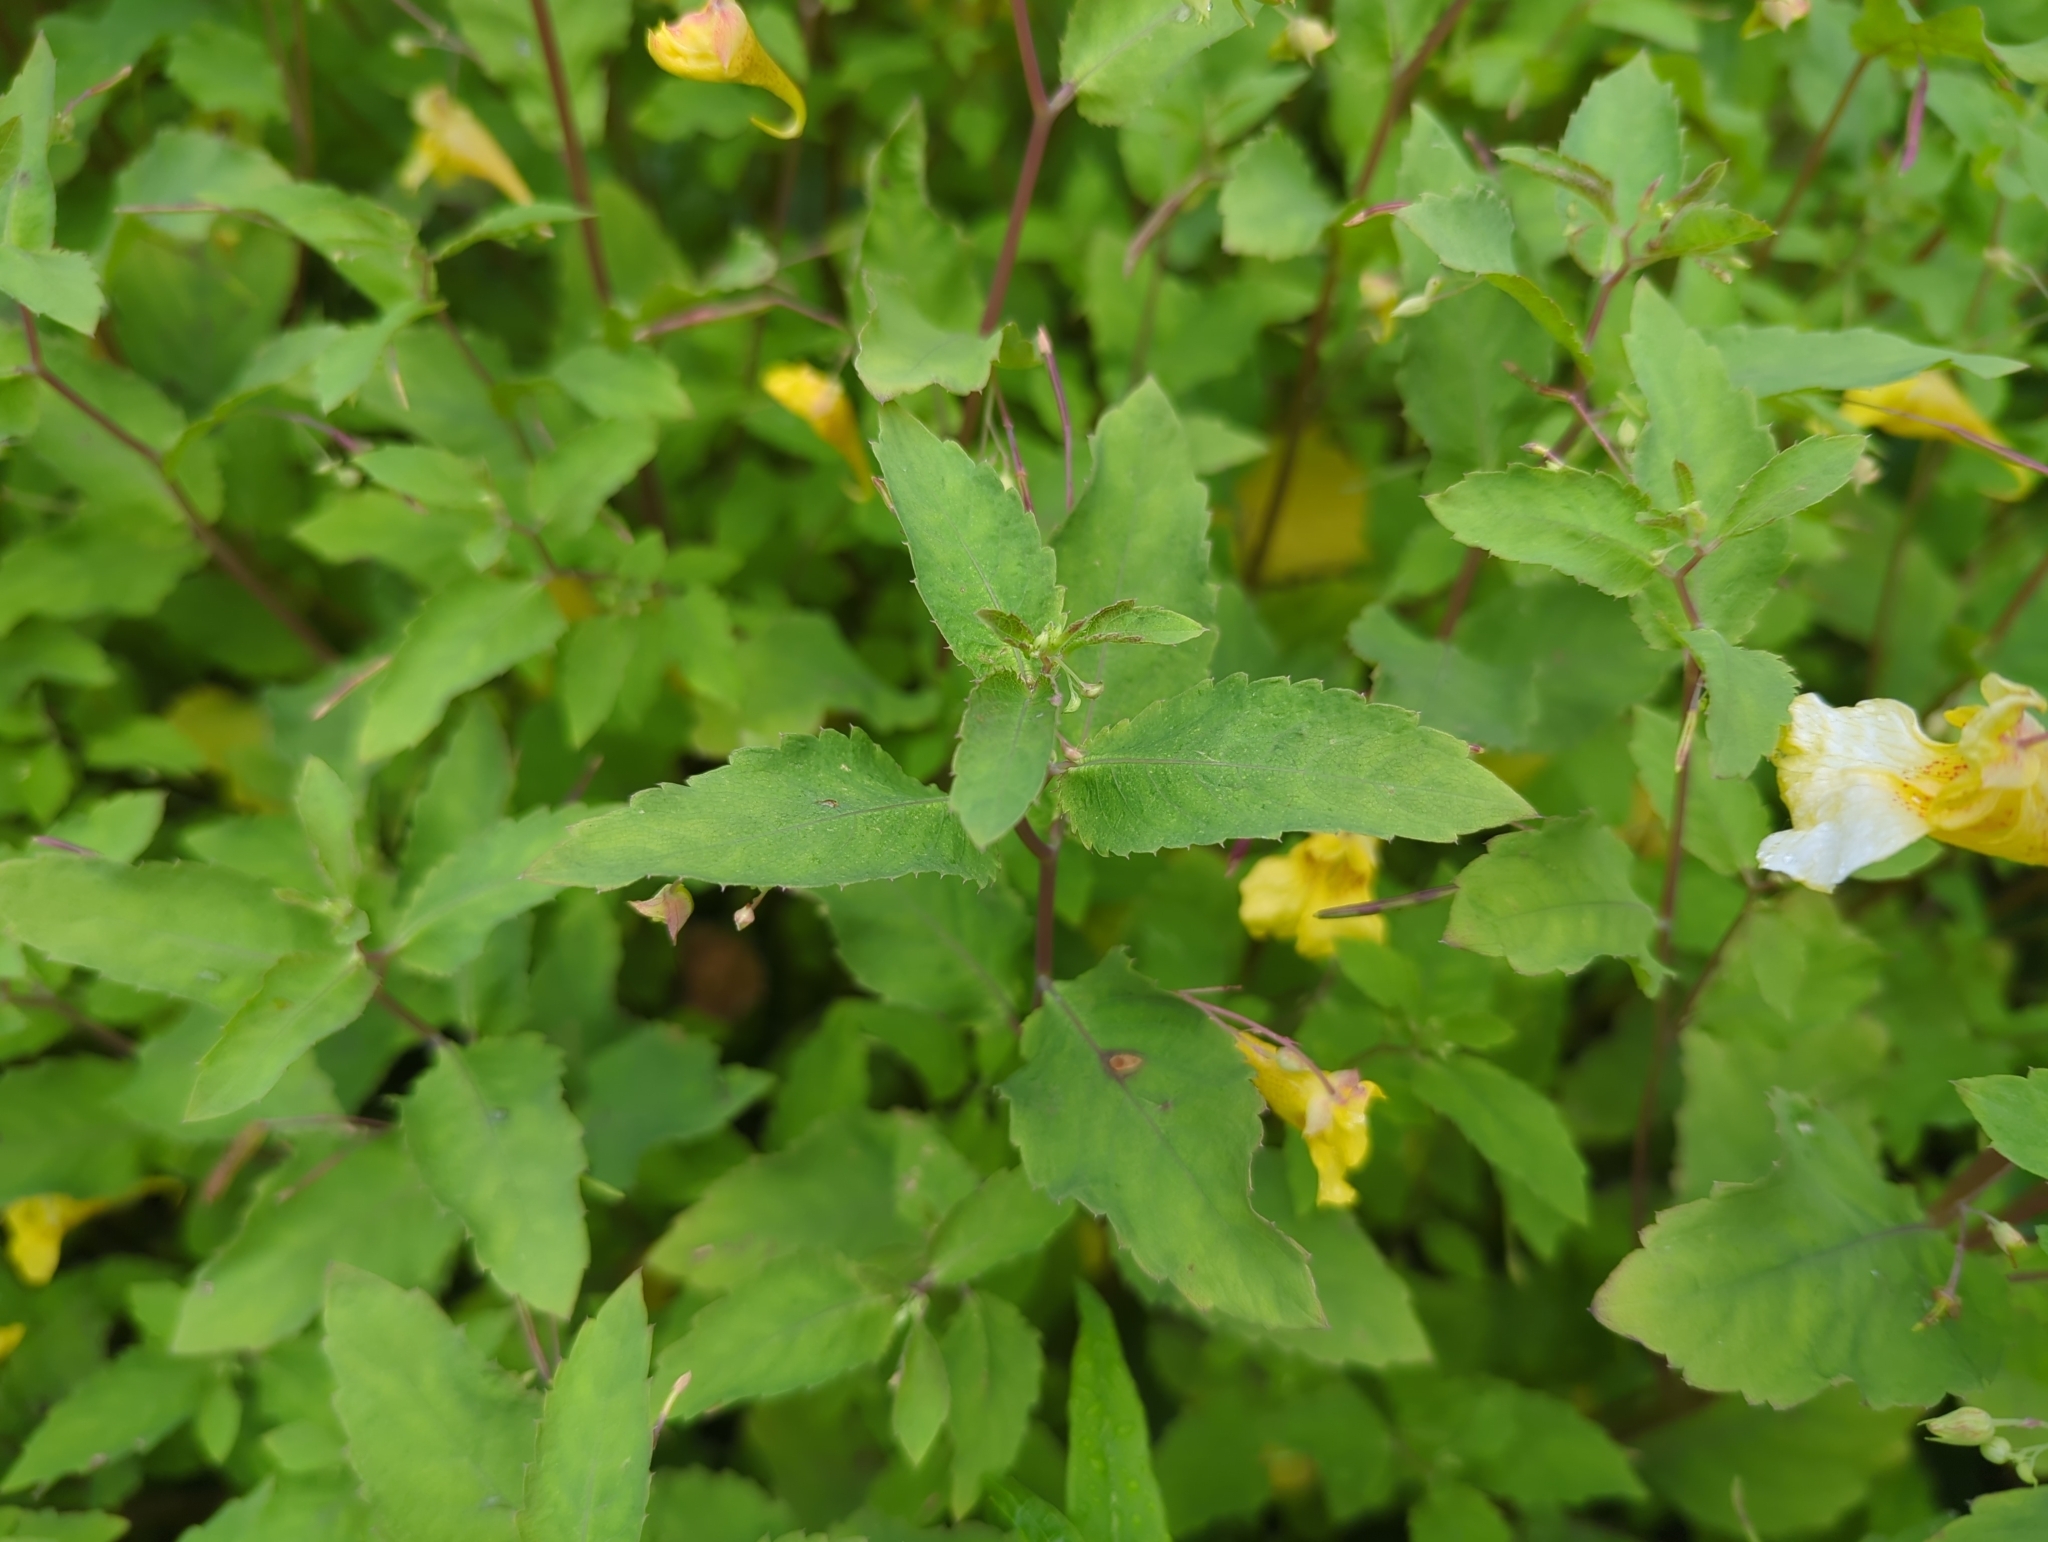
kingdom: Plantae
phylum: Tracheophyta
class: Magnoliopsida
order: Ericales
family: Balsaminaceae
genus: Impatiens
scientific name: Impatiens noli-tangere
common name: Touch-me-not balsam
